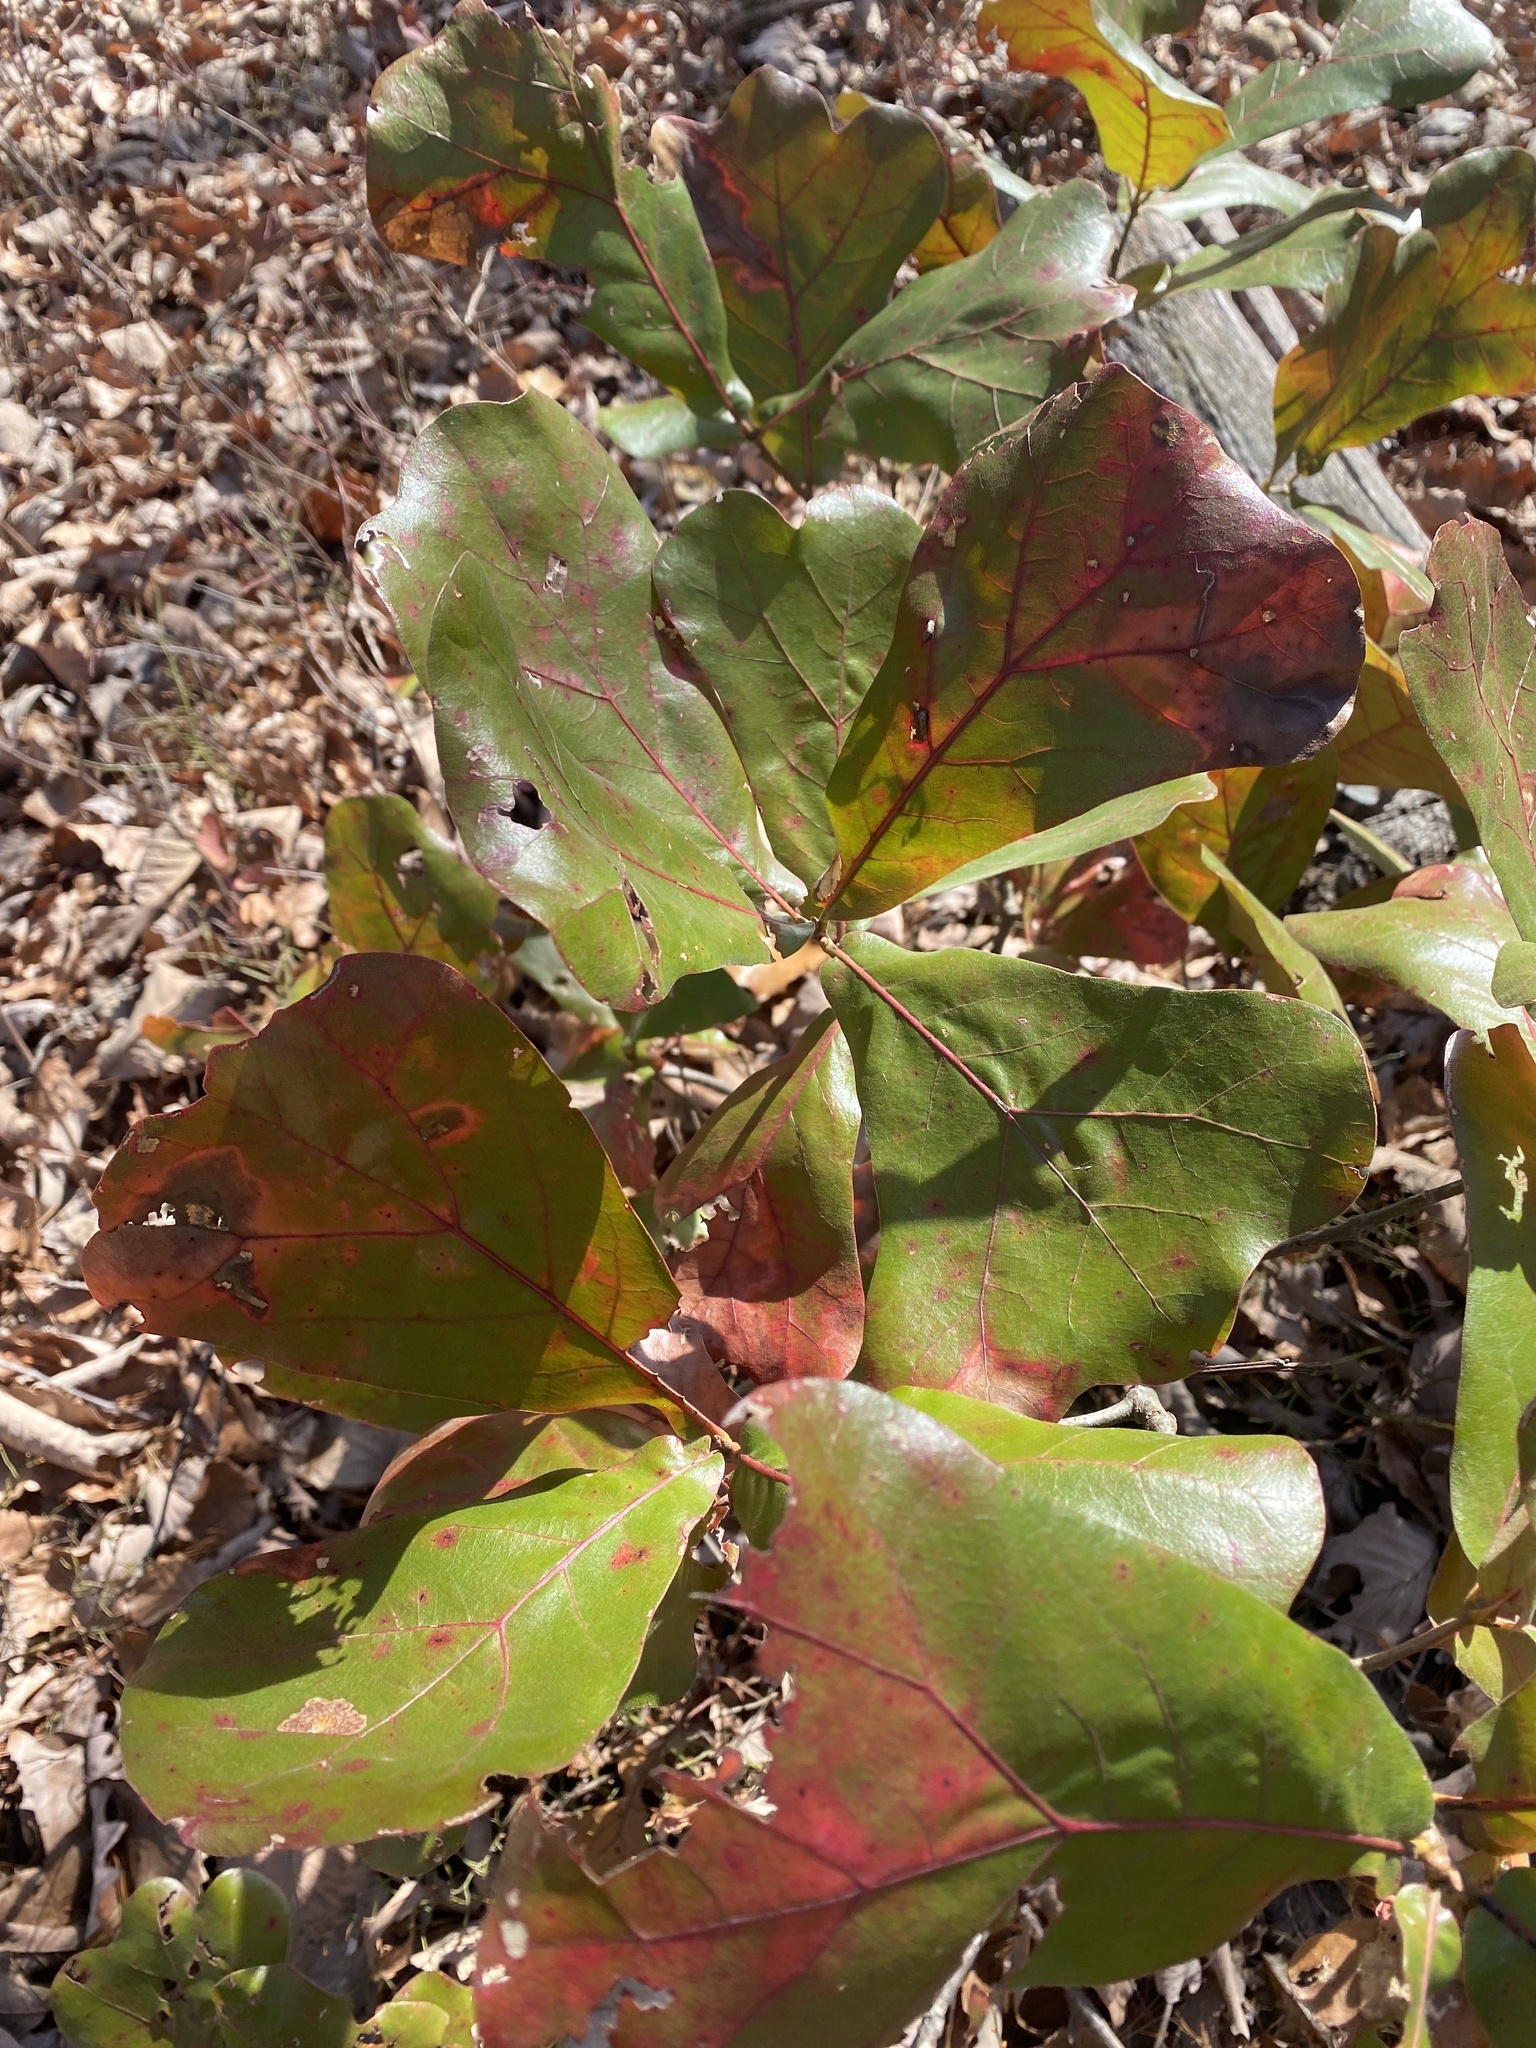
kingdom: Plantae
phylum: Tracheophyta
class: Magnoliopsida
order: Fagales
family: Fagaceae
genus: Quercus
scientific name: Quercus marilandica
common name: Blackjack oak
